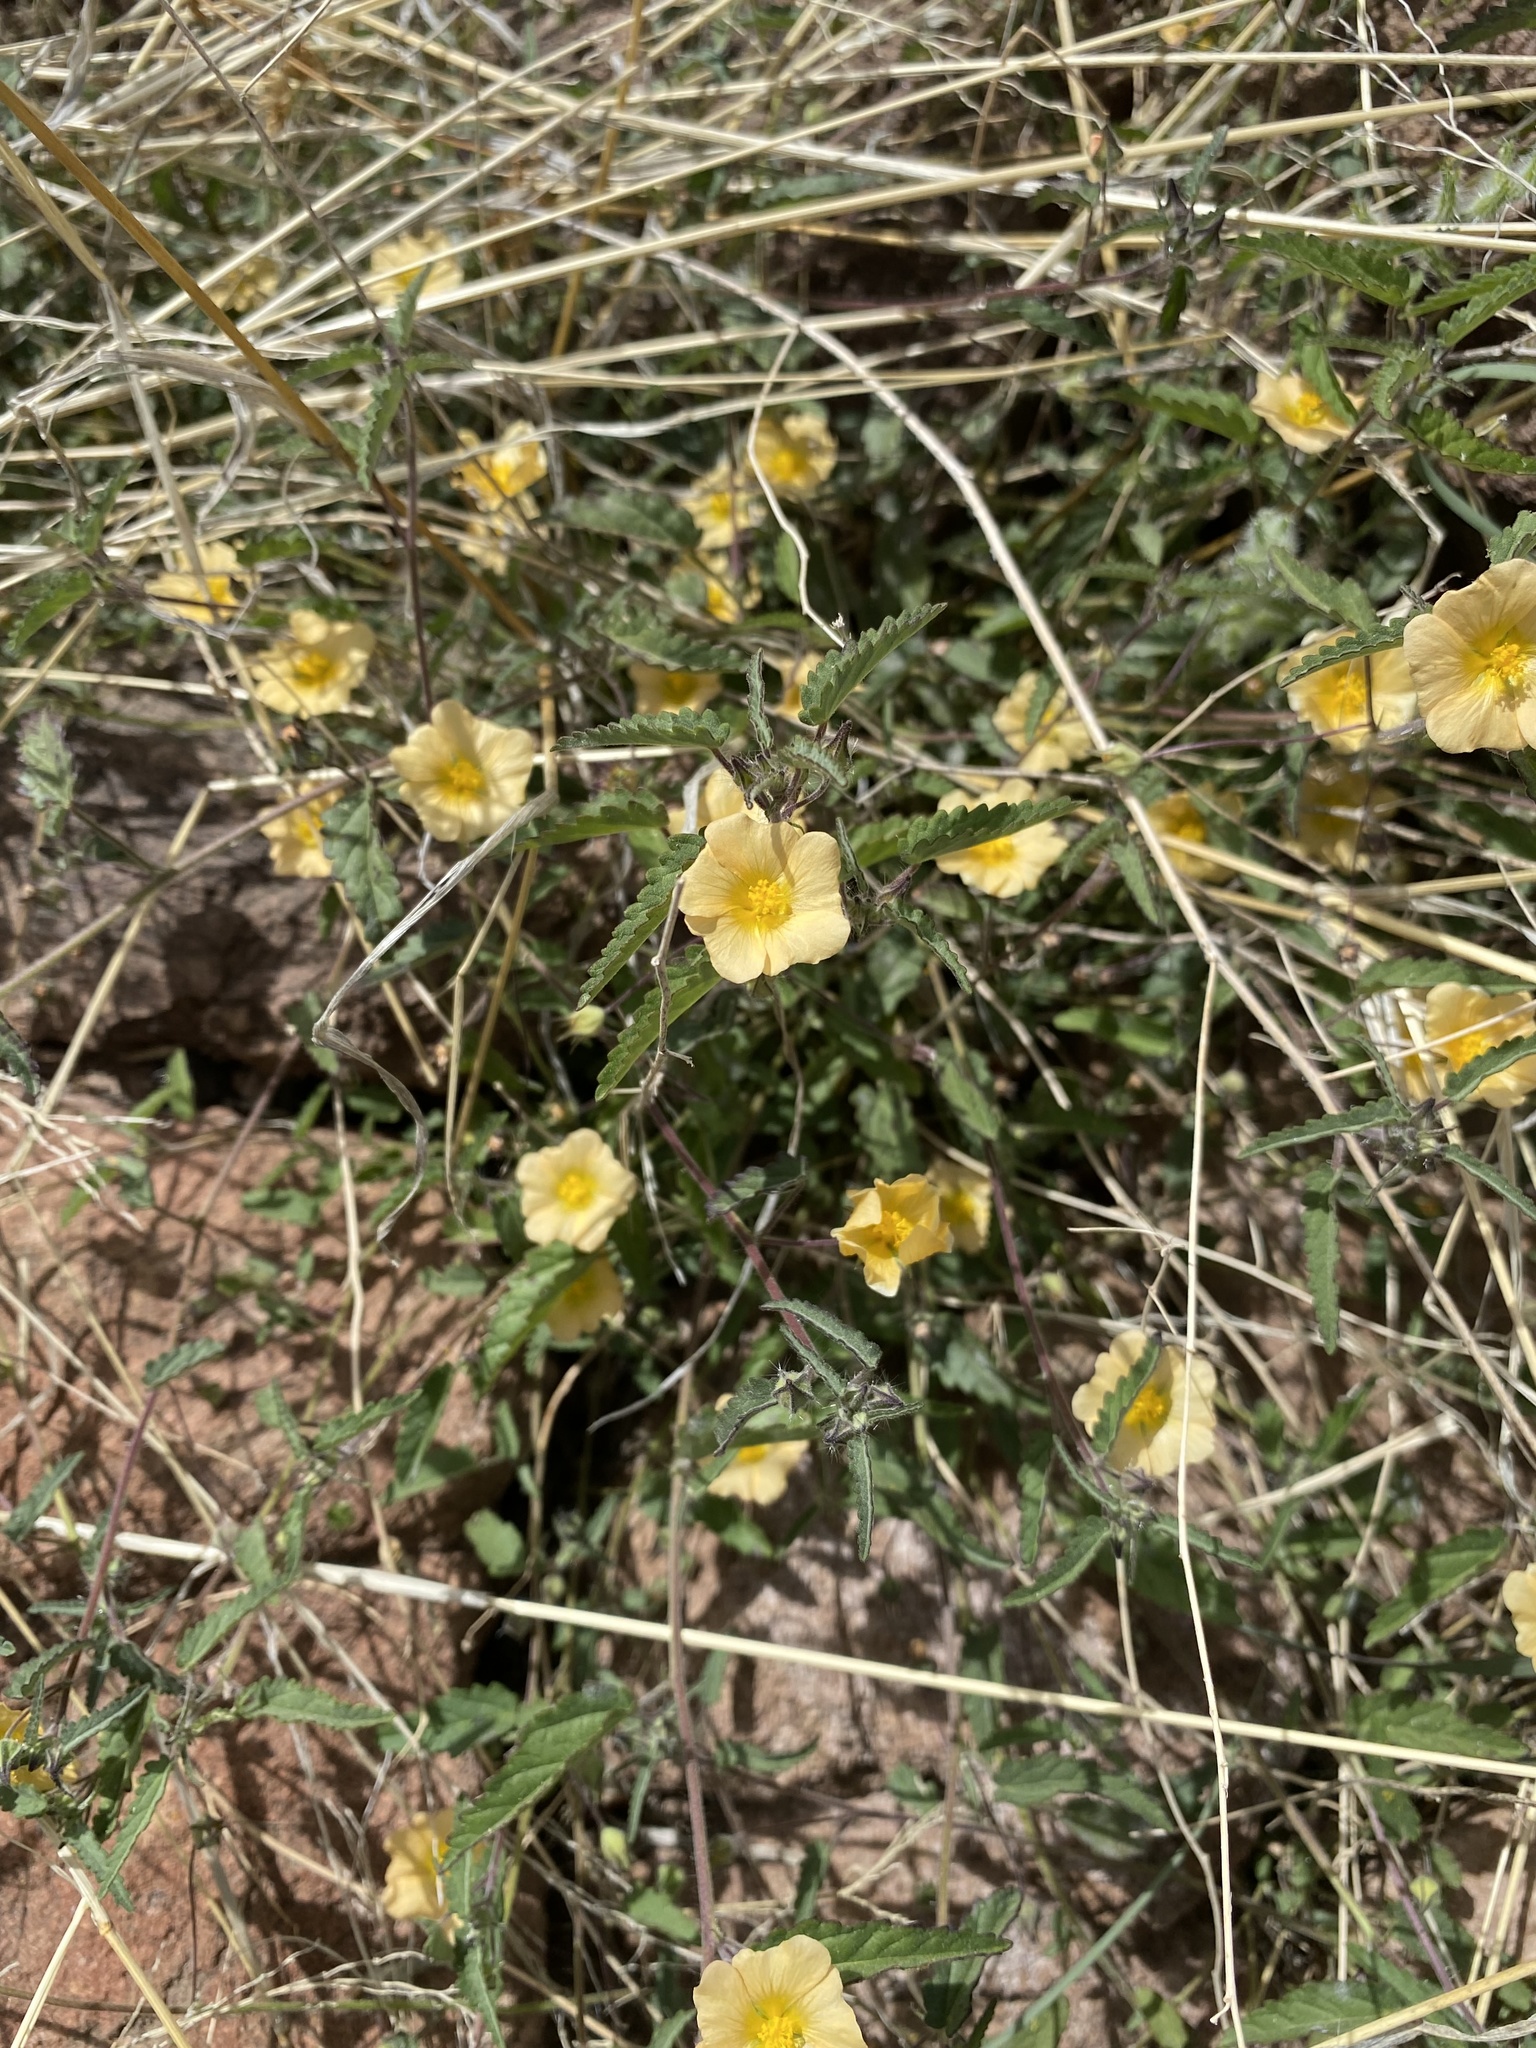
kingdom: Plantae
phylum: Tracheophyta
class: Magnoliopsida
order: Malvales
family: Malvaceae
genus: Sida
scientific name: Sida abutilifolia
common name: Spreading fanpetals
